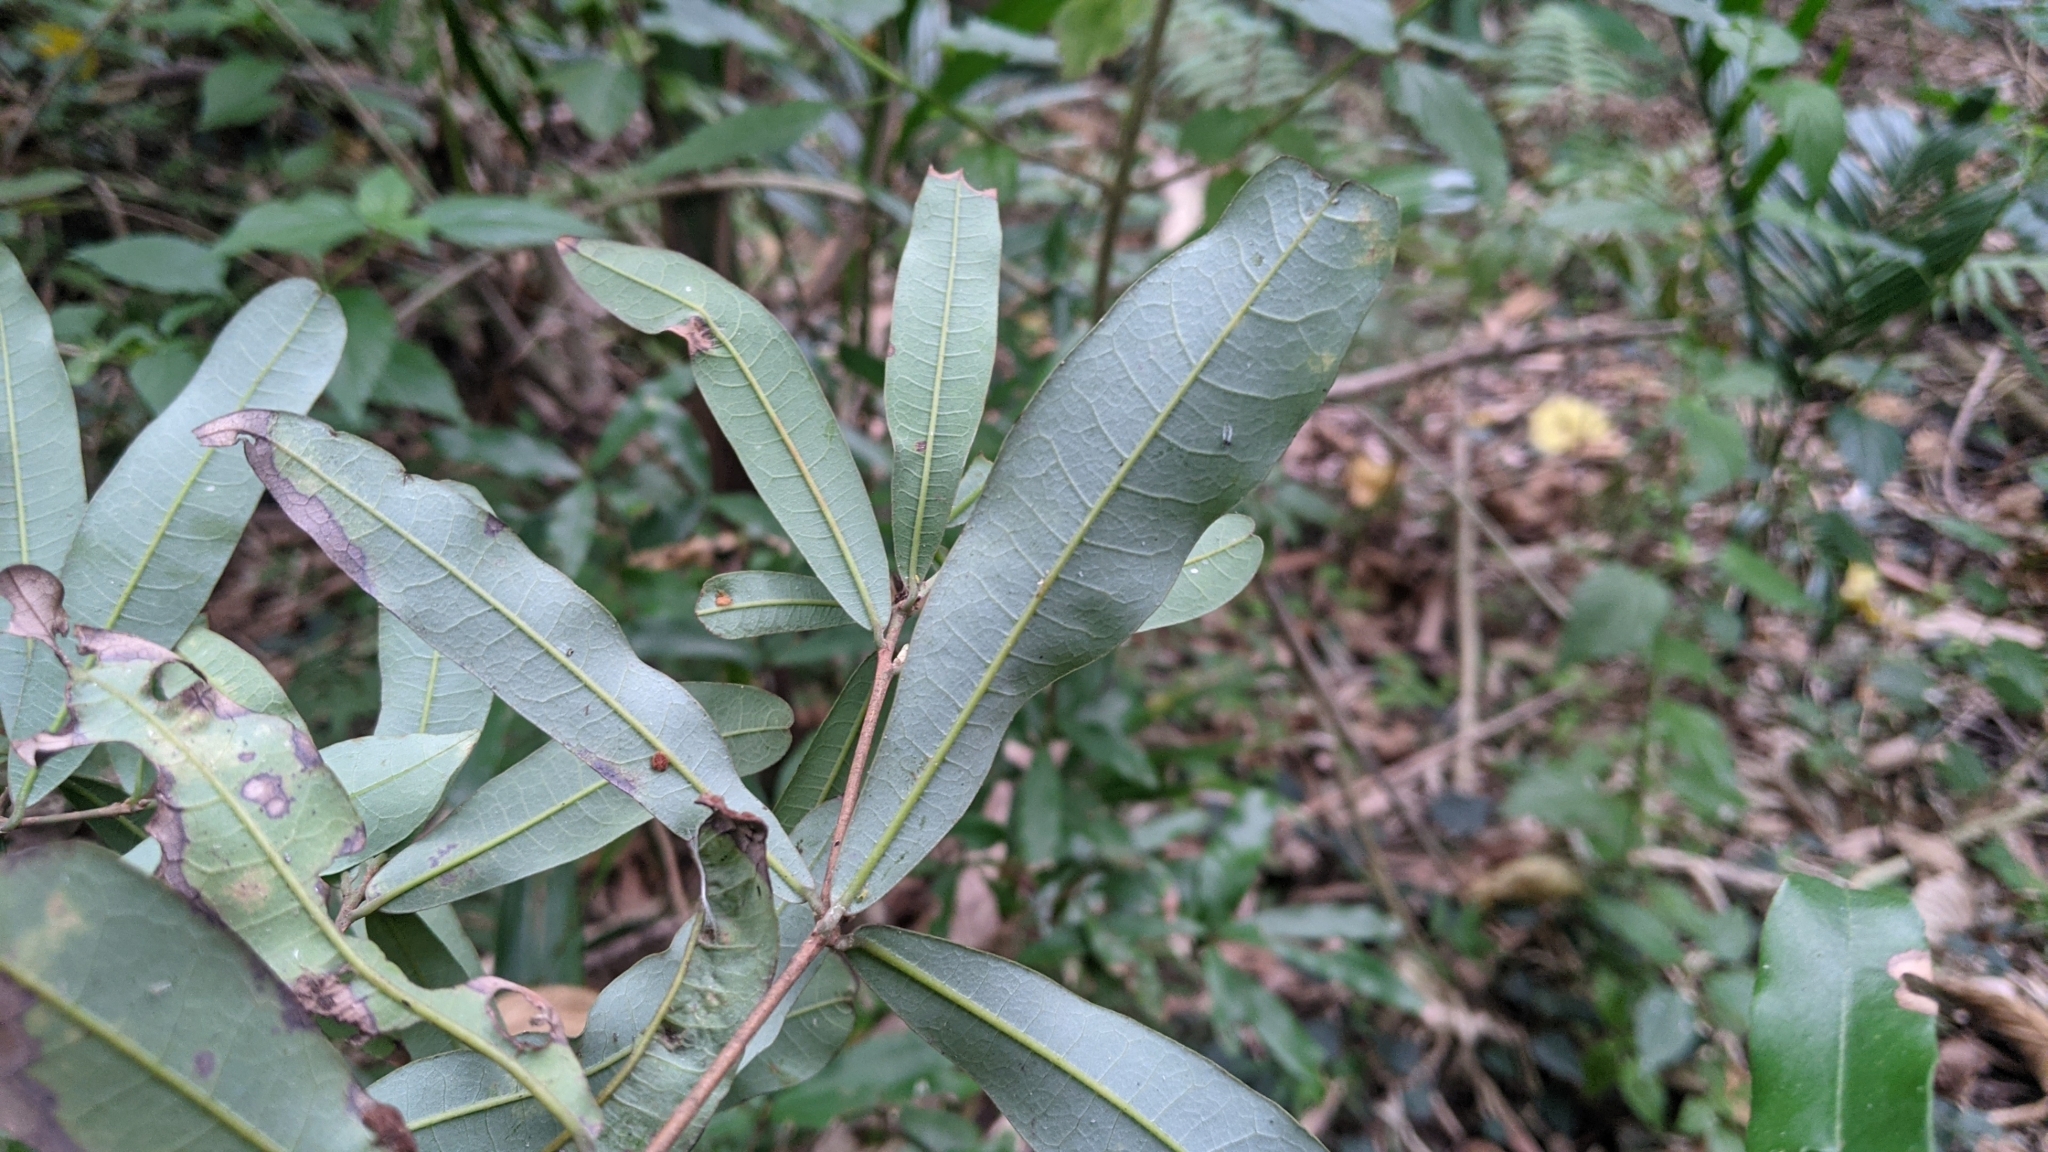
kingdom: Plantae
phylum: Tracheophyta
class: Magnoliopsida
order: Laurales
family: Lauraceae
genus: Litsea
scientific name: Litsea hypophaea
